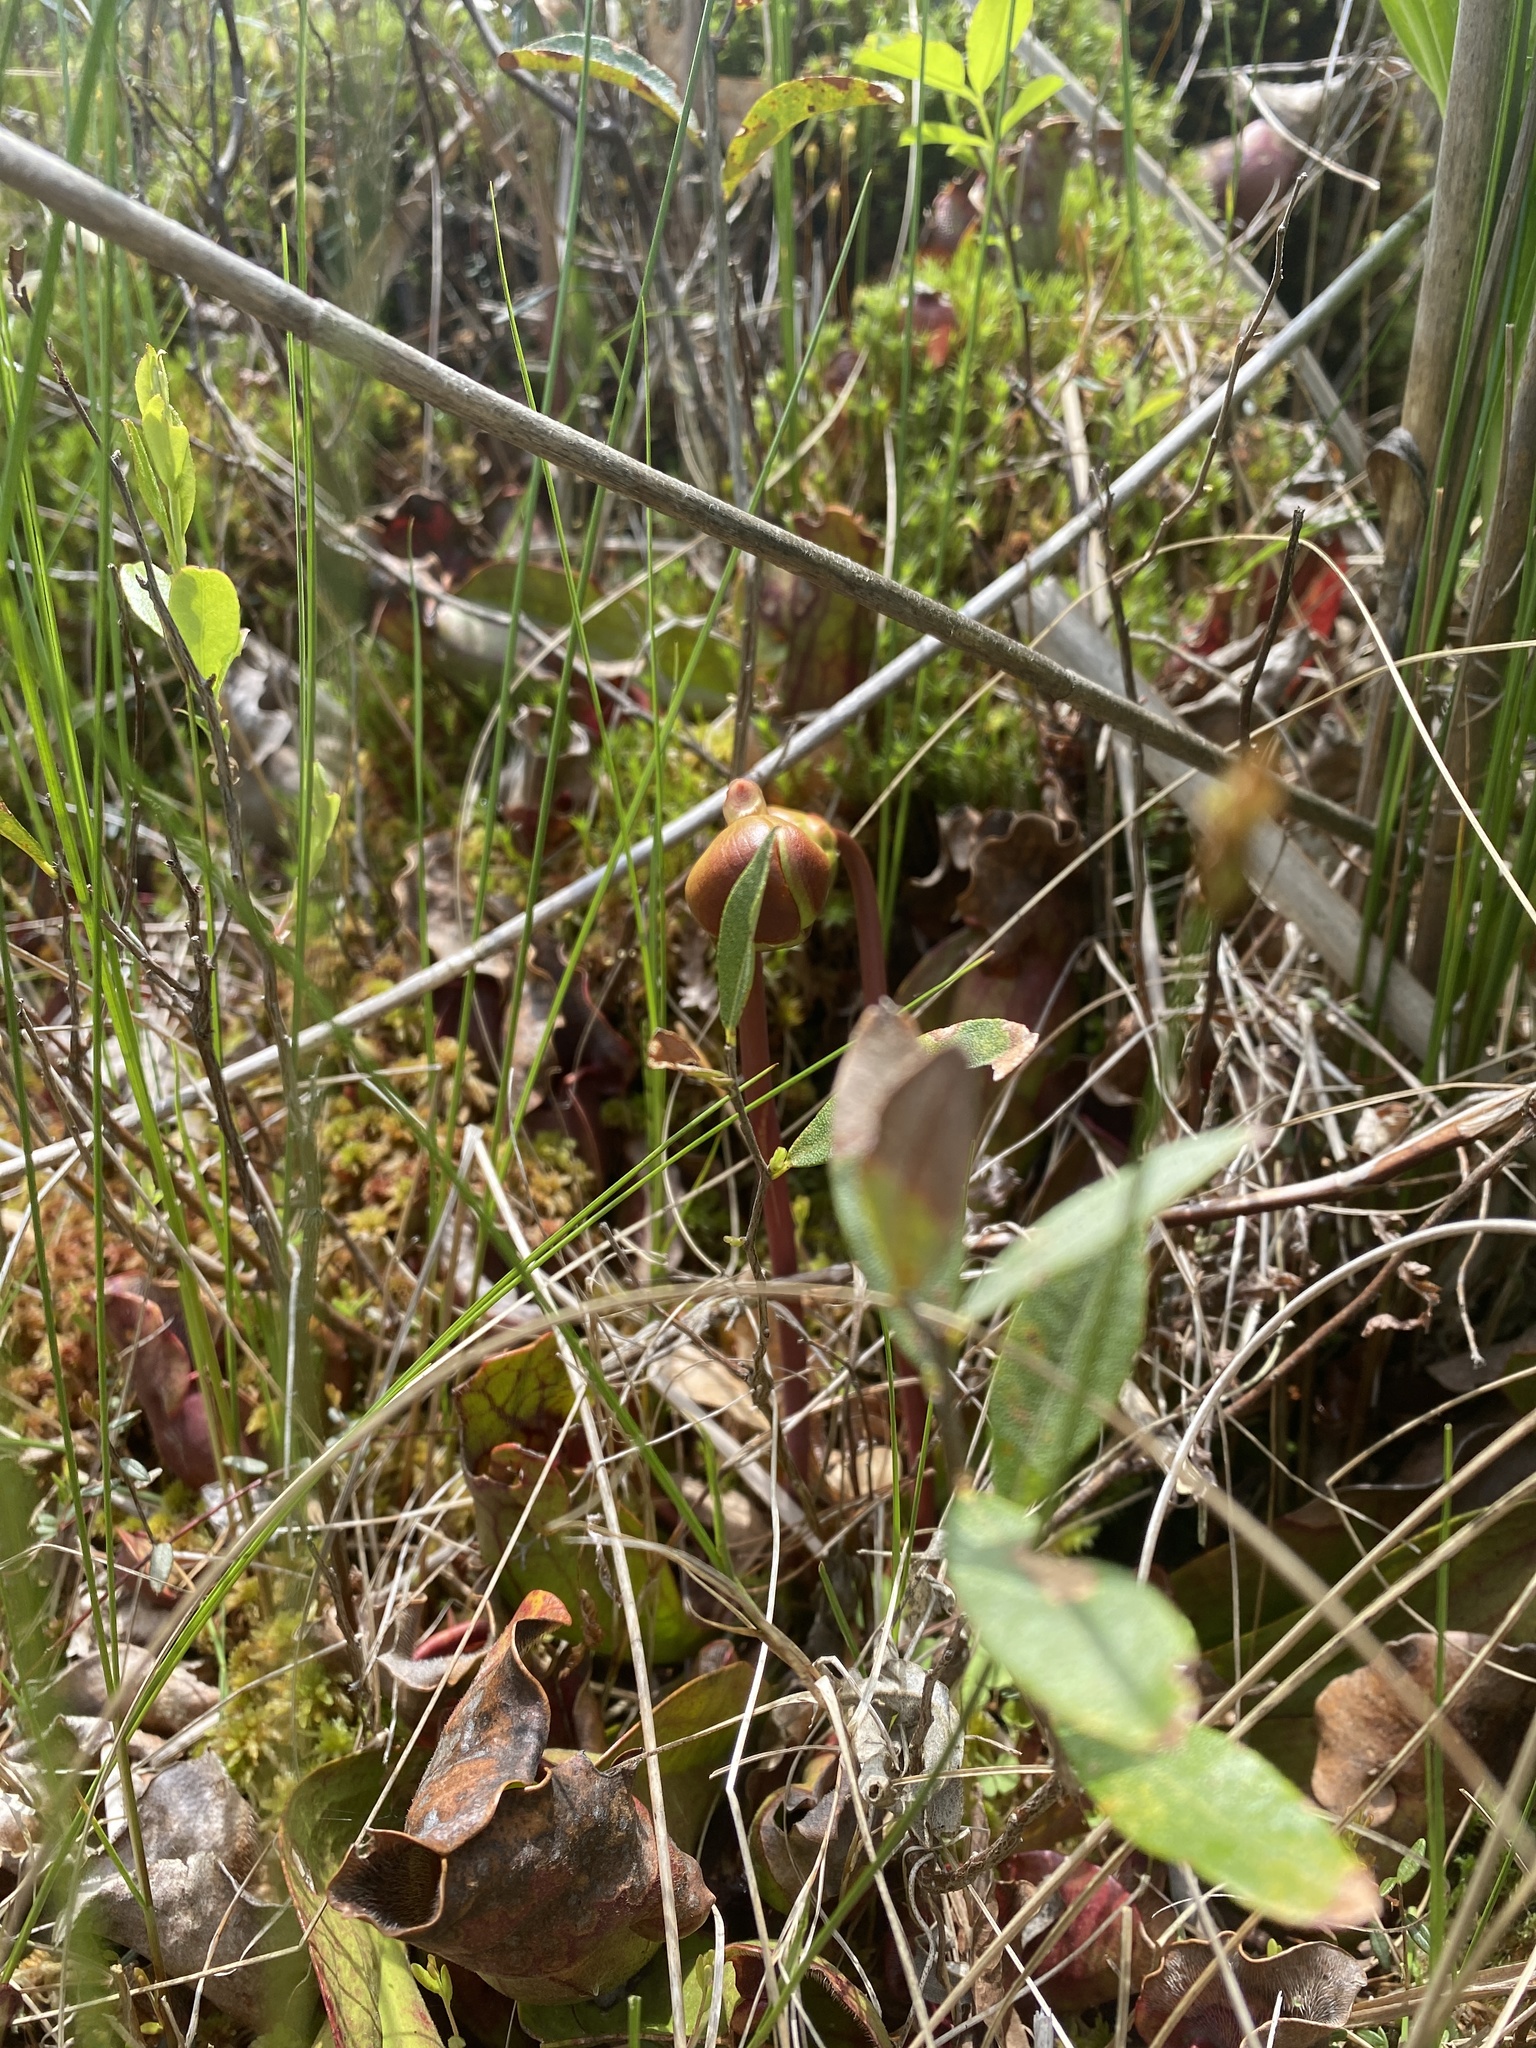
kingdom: Plantae
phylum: Tracheophyta
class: Magnoliopsida
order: Ericales
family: Sarraceniaceae
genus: Sarracenia
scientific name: Sarracenia purpurea
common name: Pitcherplant
